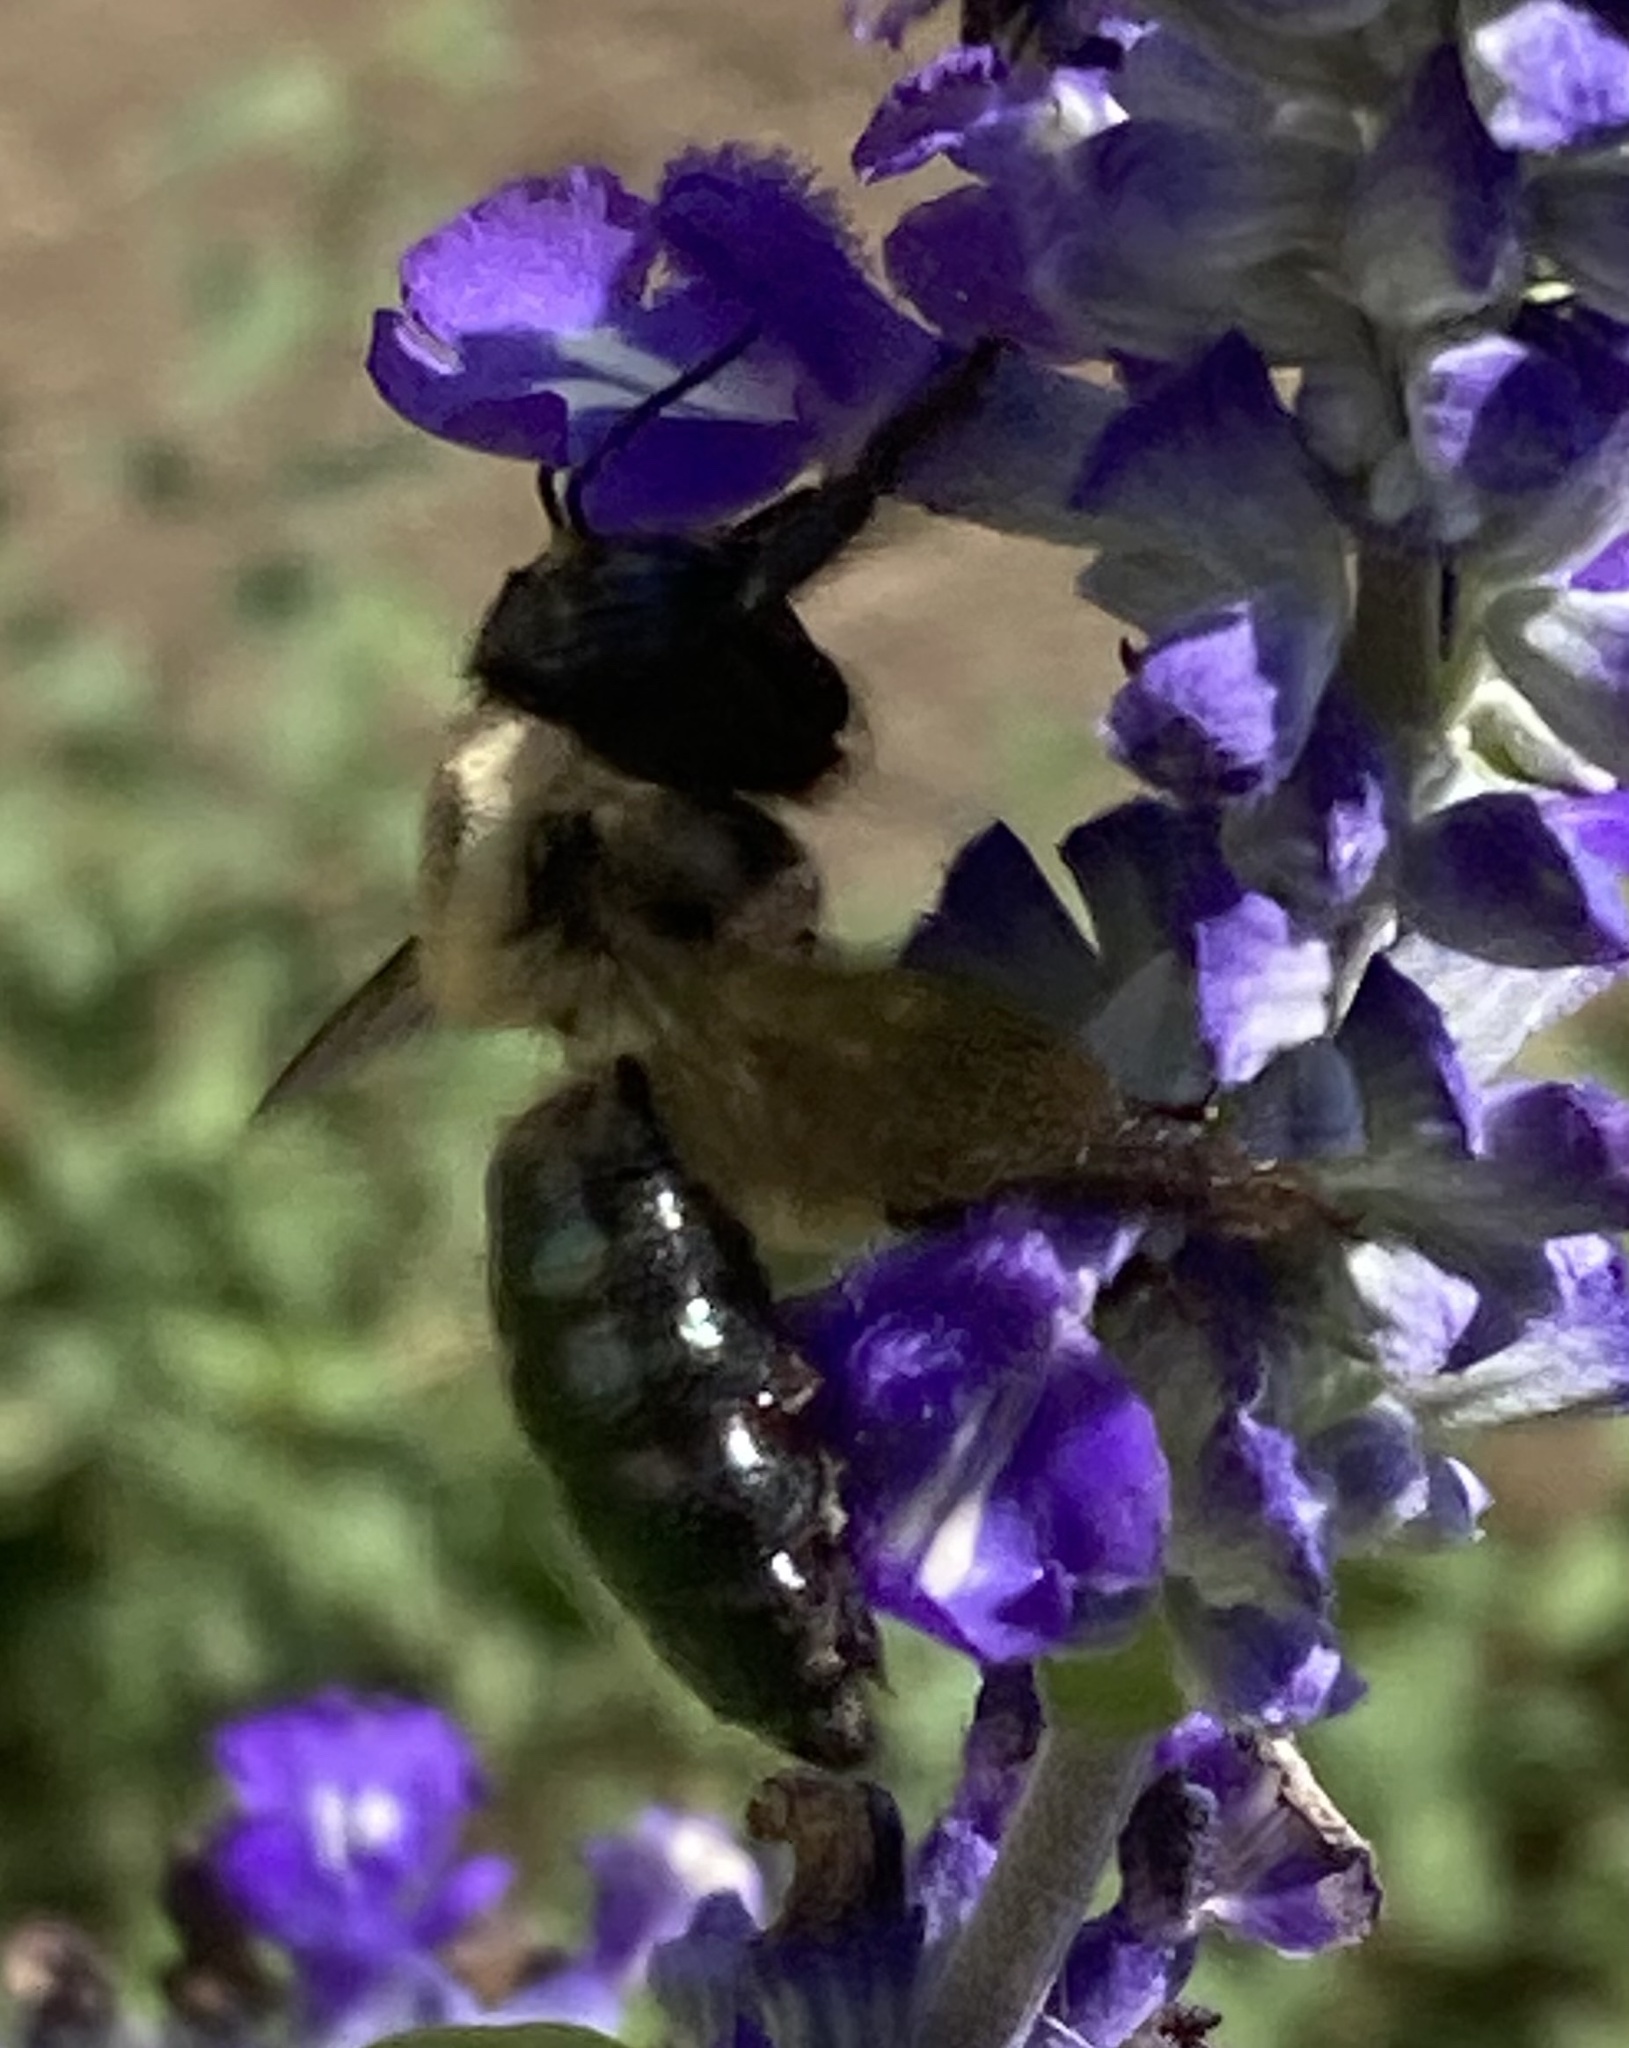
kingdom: Animalia
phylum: Arthropoda
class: Insecta
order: Hymenoptera
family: Apidae
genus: Xylocopa
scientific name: Xylocopa virginica
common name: Carpenter bee
